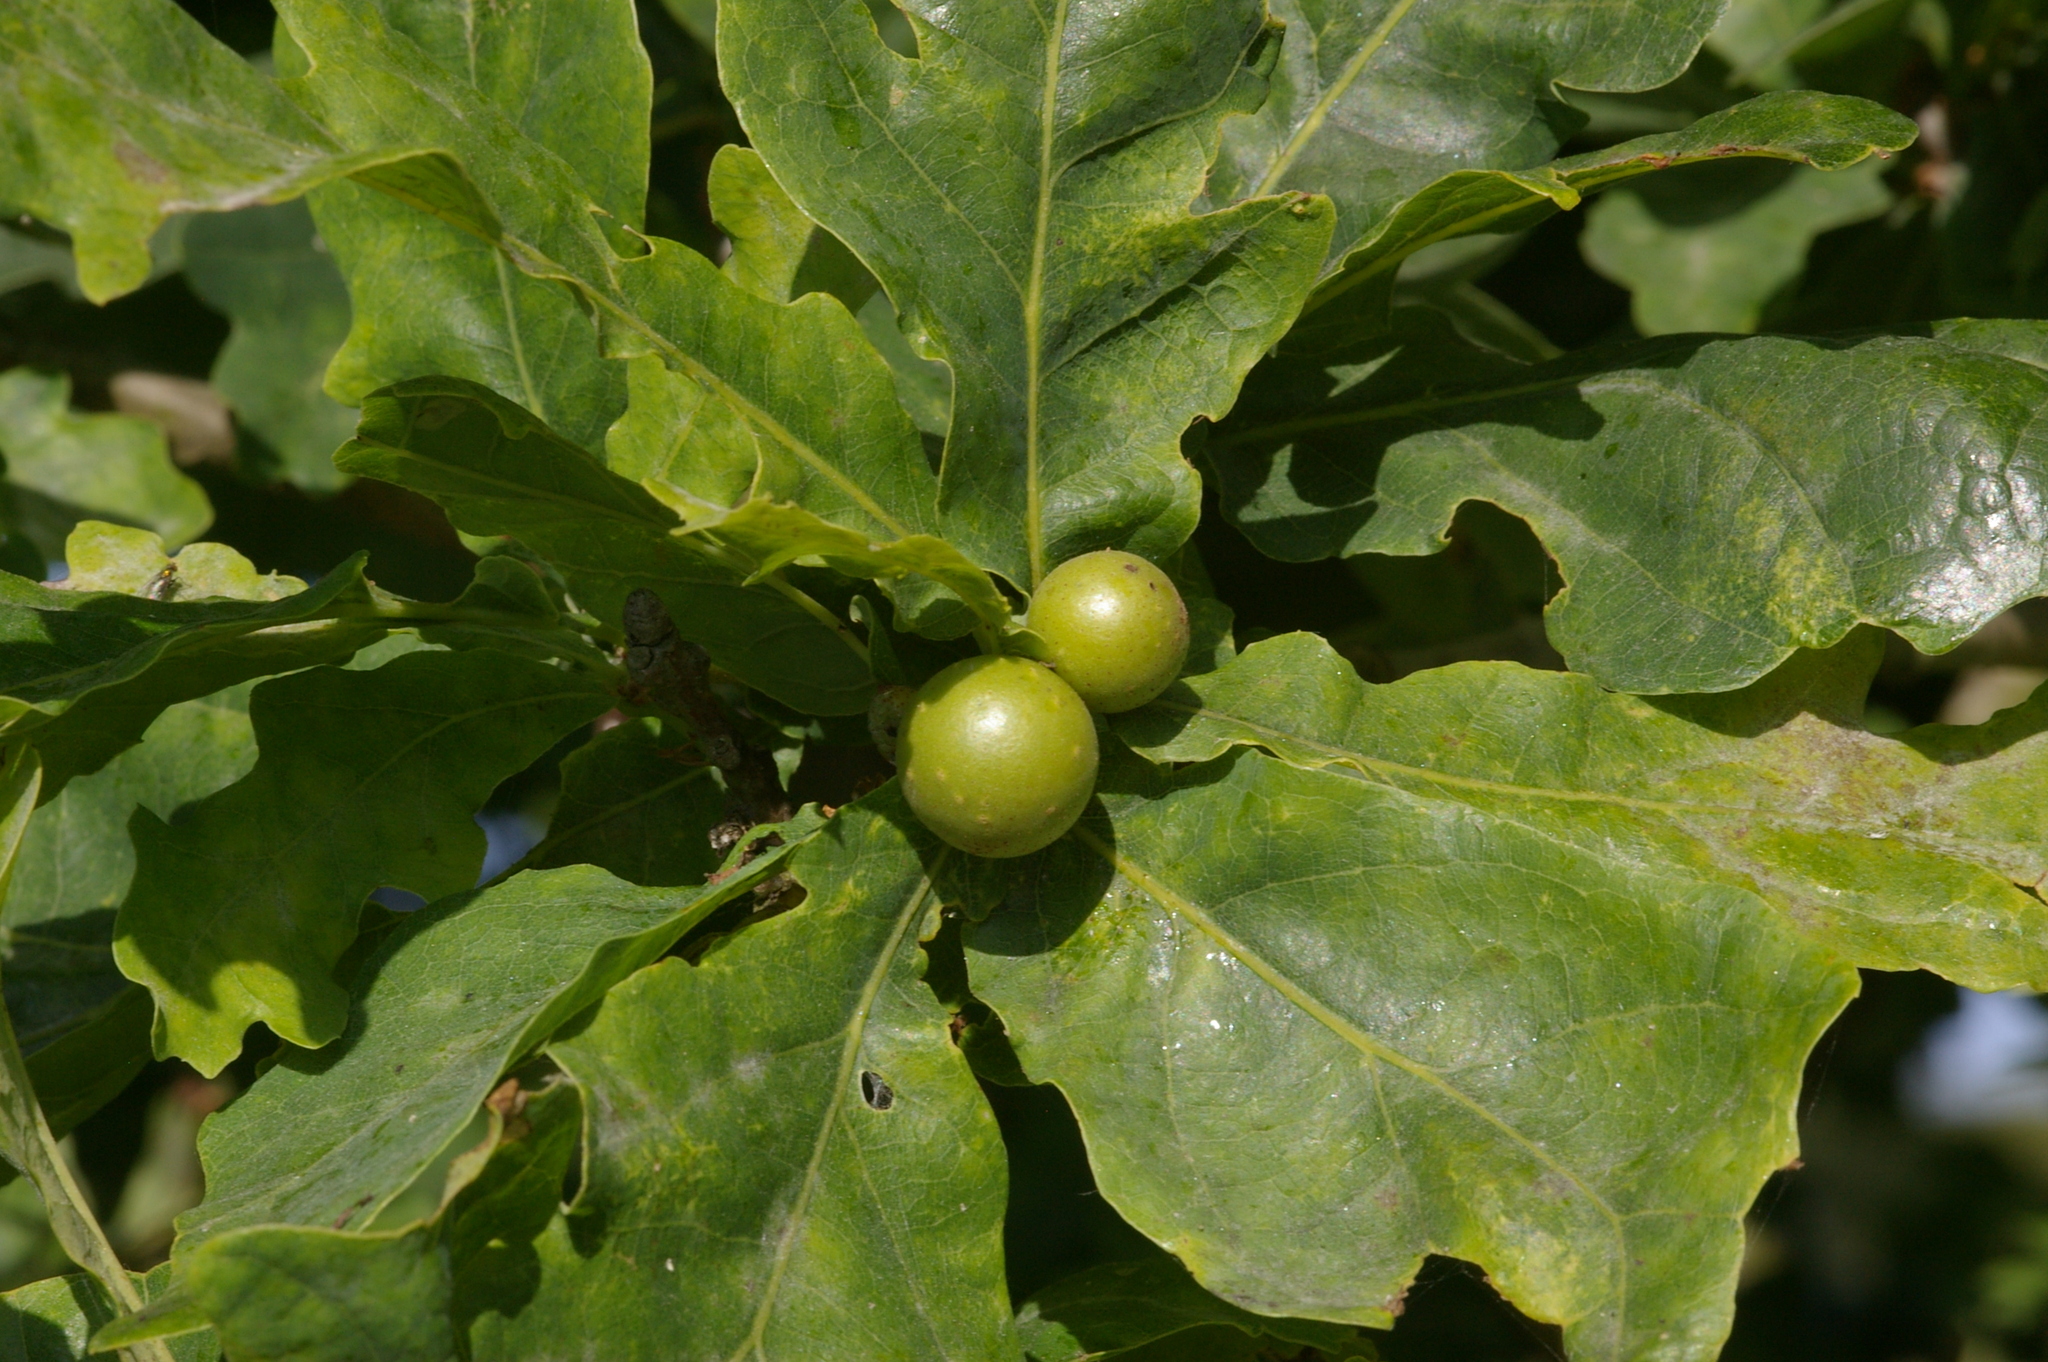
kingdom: Animalia
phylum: Arthropoda
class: Insecta
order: Hymenoptera
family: Cynipidae
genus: Andricus
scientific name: Andricus kollari
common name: Marble gall
